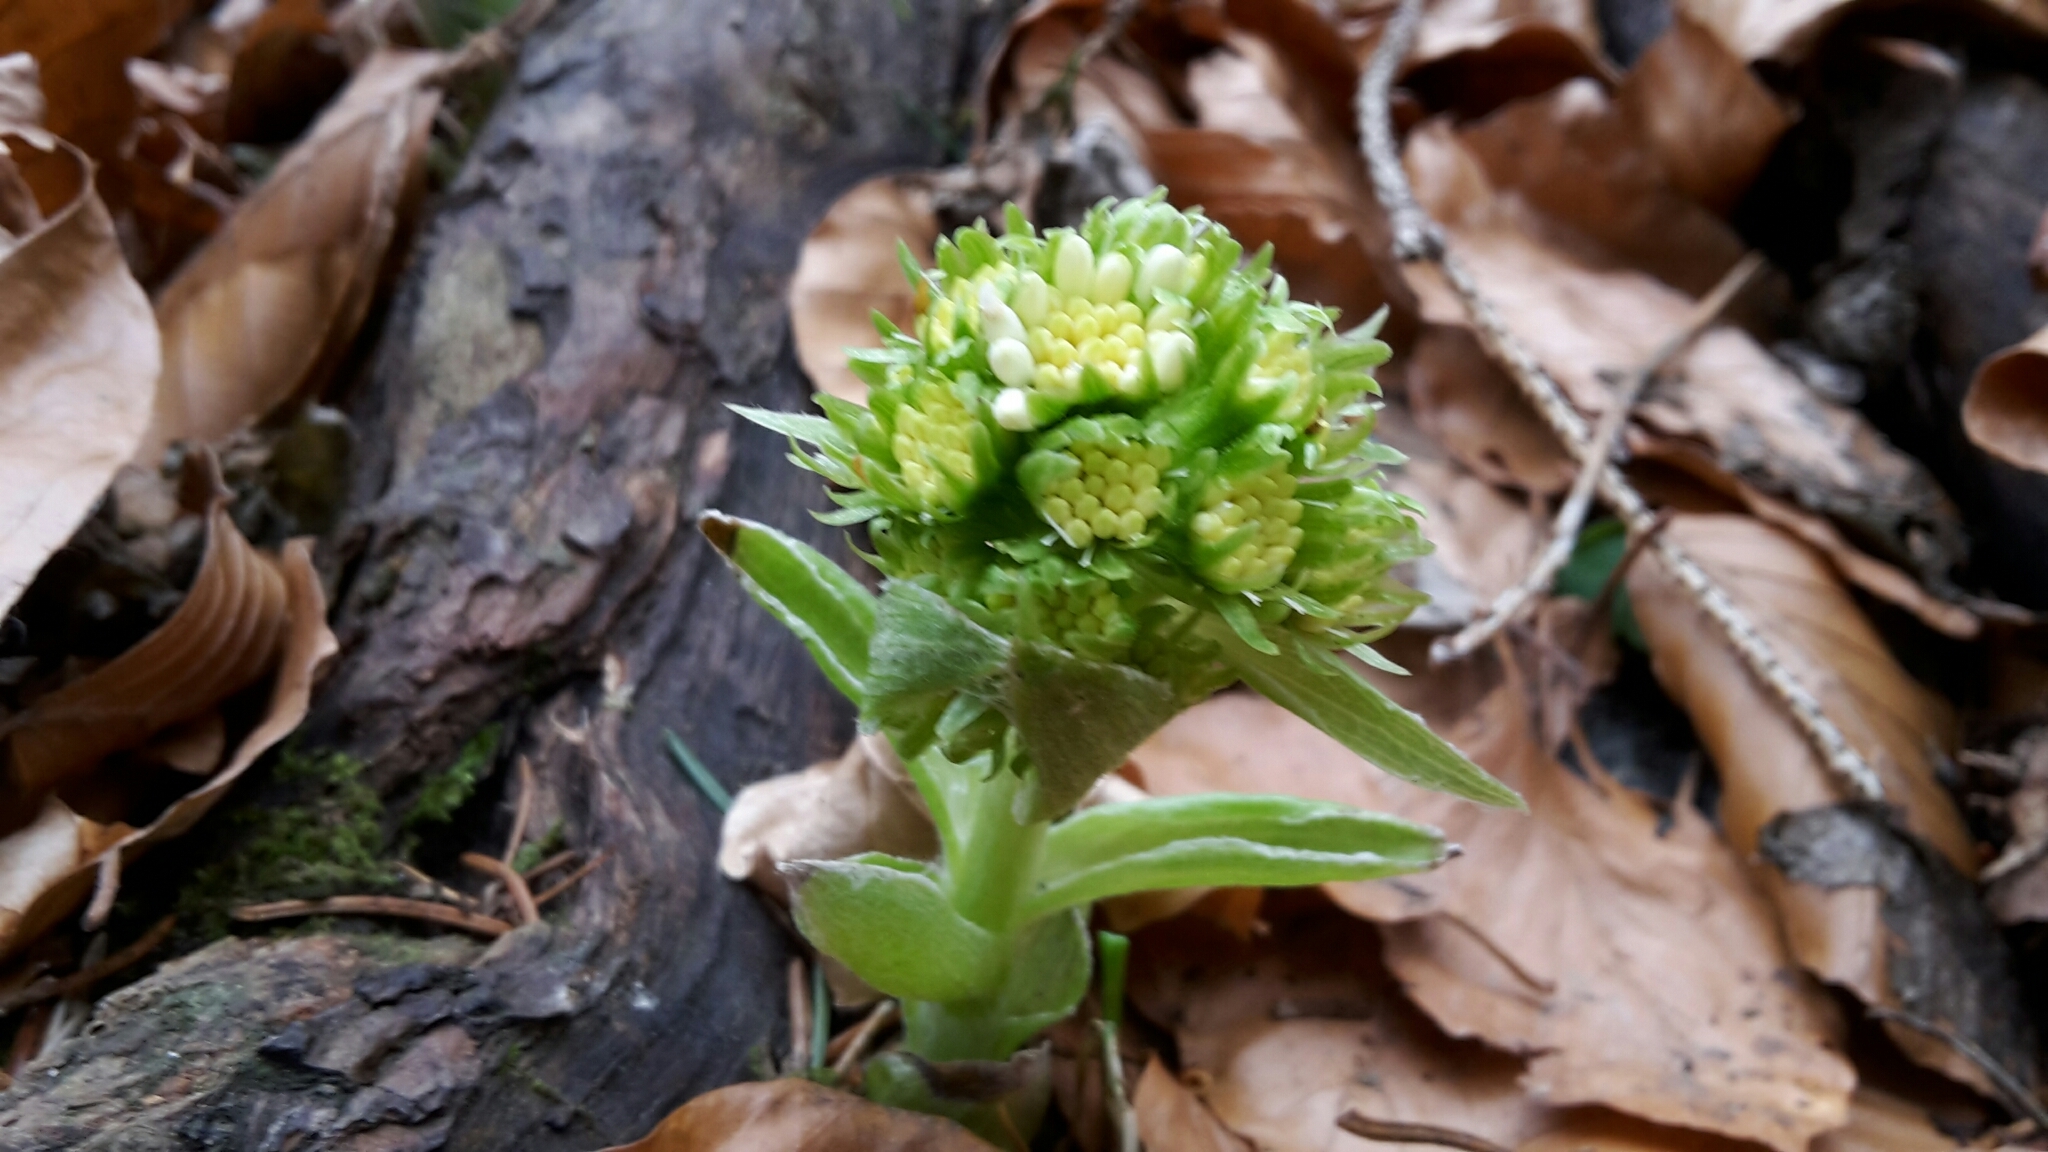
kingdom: Plantae
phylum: Tracheophyta
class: Magnoliopsida
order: Asterales
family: Asteraceae
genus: Petasites
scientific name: Petasites albus
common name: White butterbur
